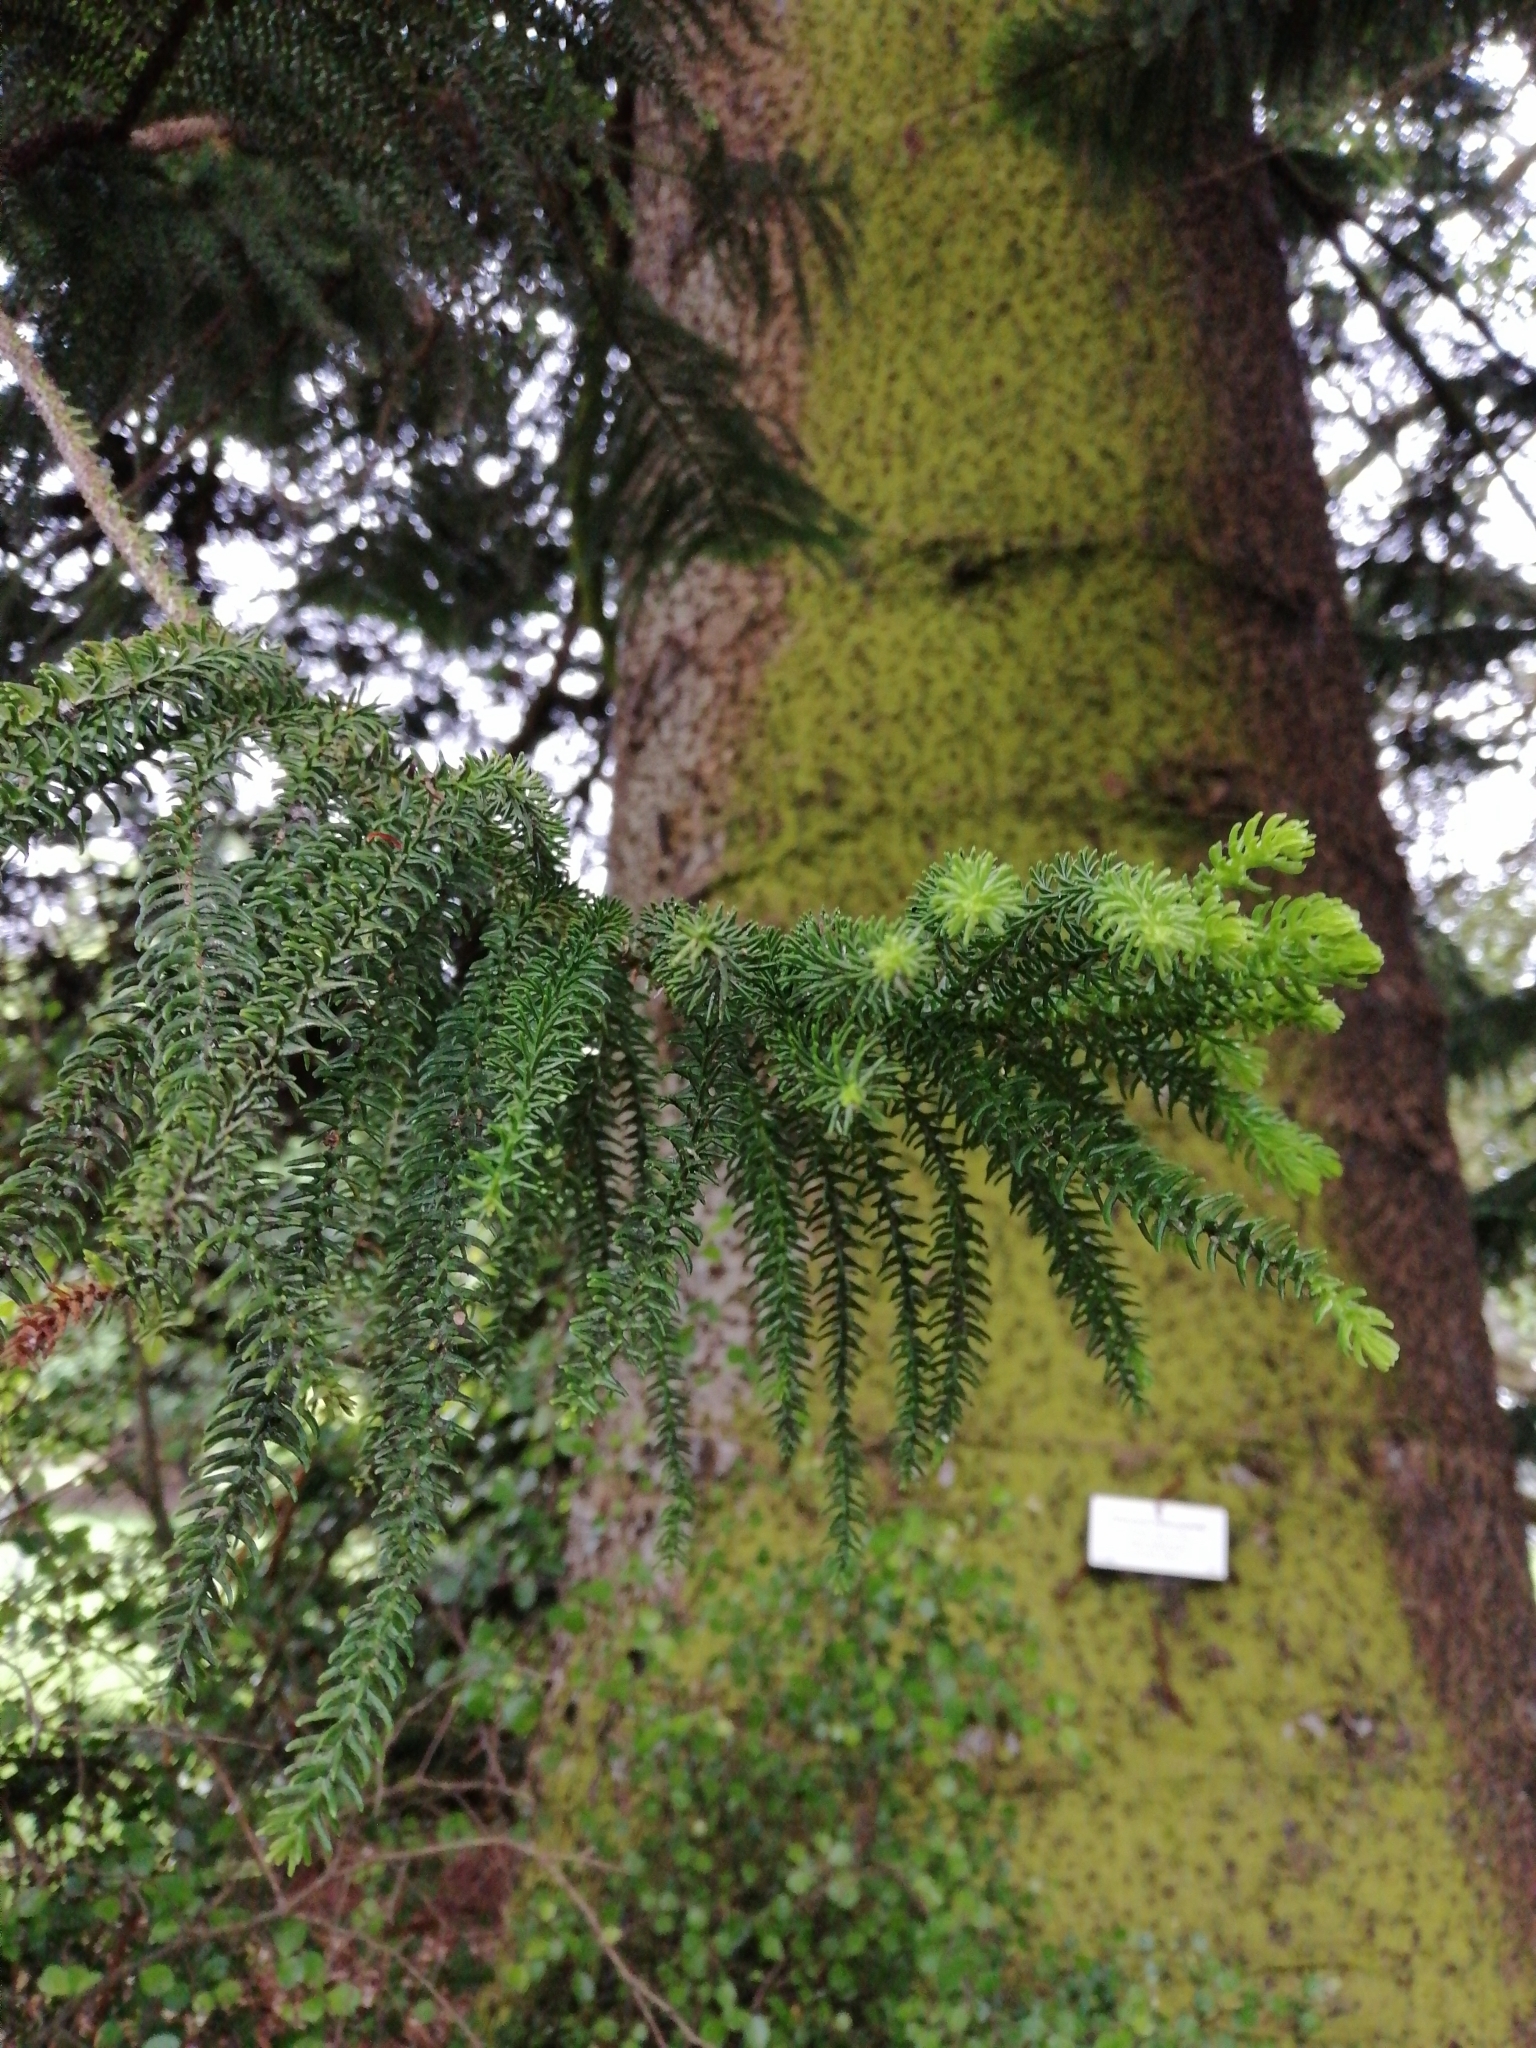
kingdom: Plantae
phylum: Tracheophyta
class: Pinopsida
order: Pinales
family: Araucariaceae
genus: Araucaria
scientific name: Araucaria heterophylla
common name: Norfolk island pine
